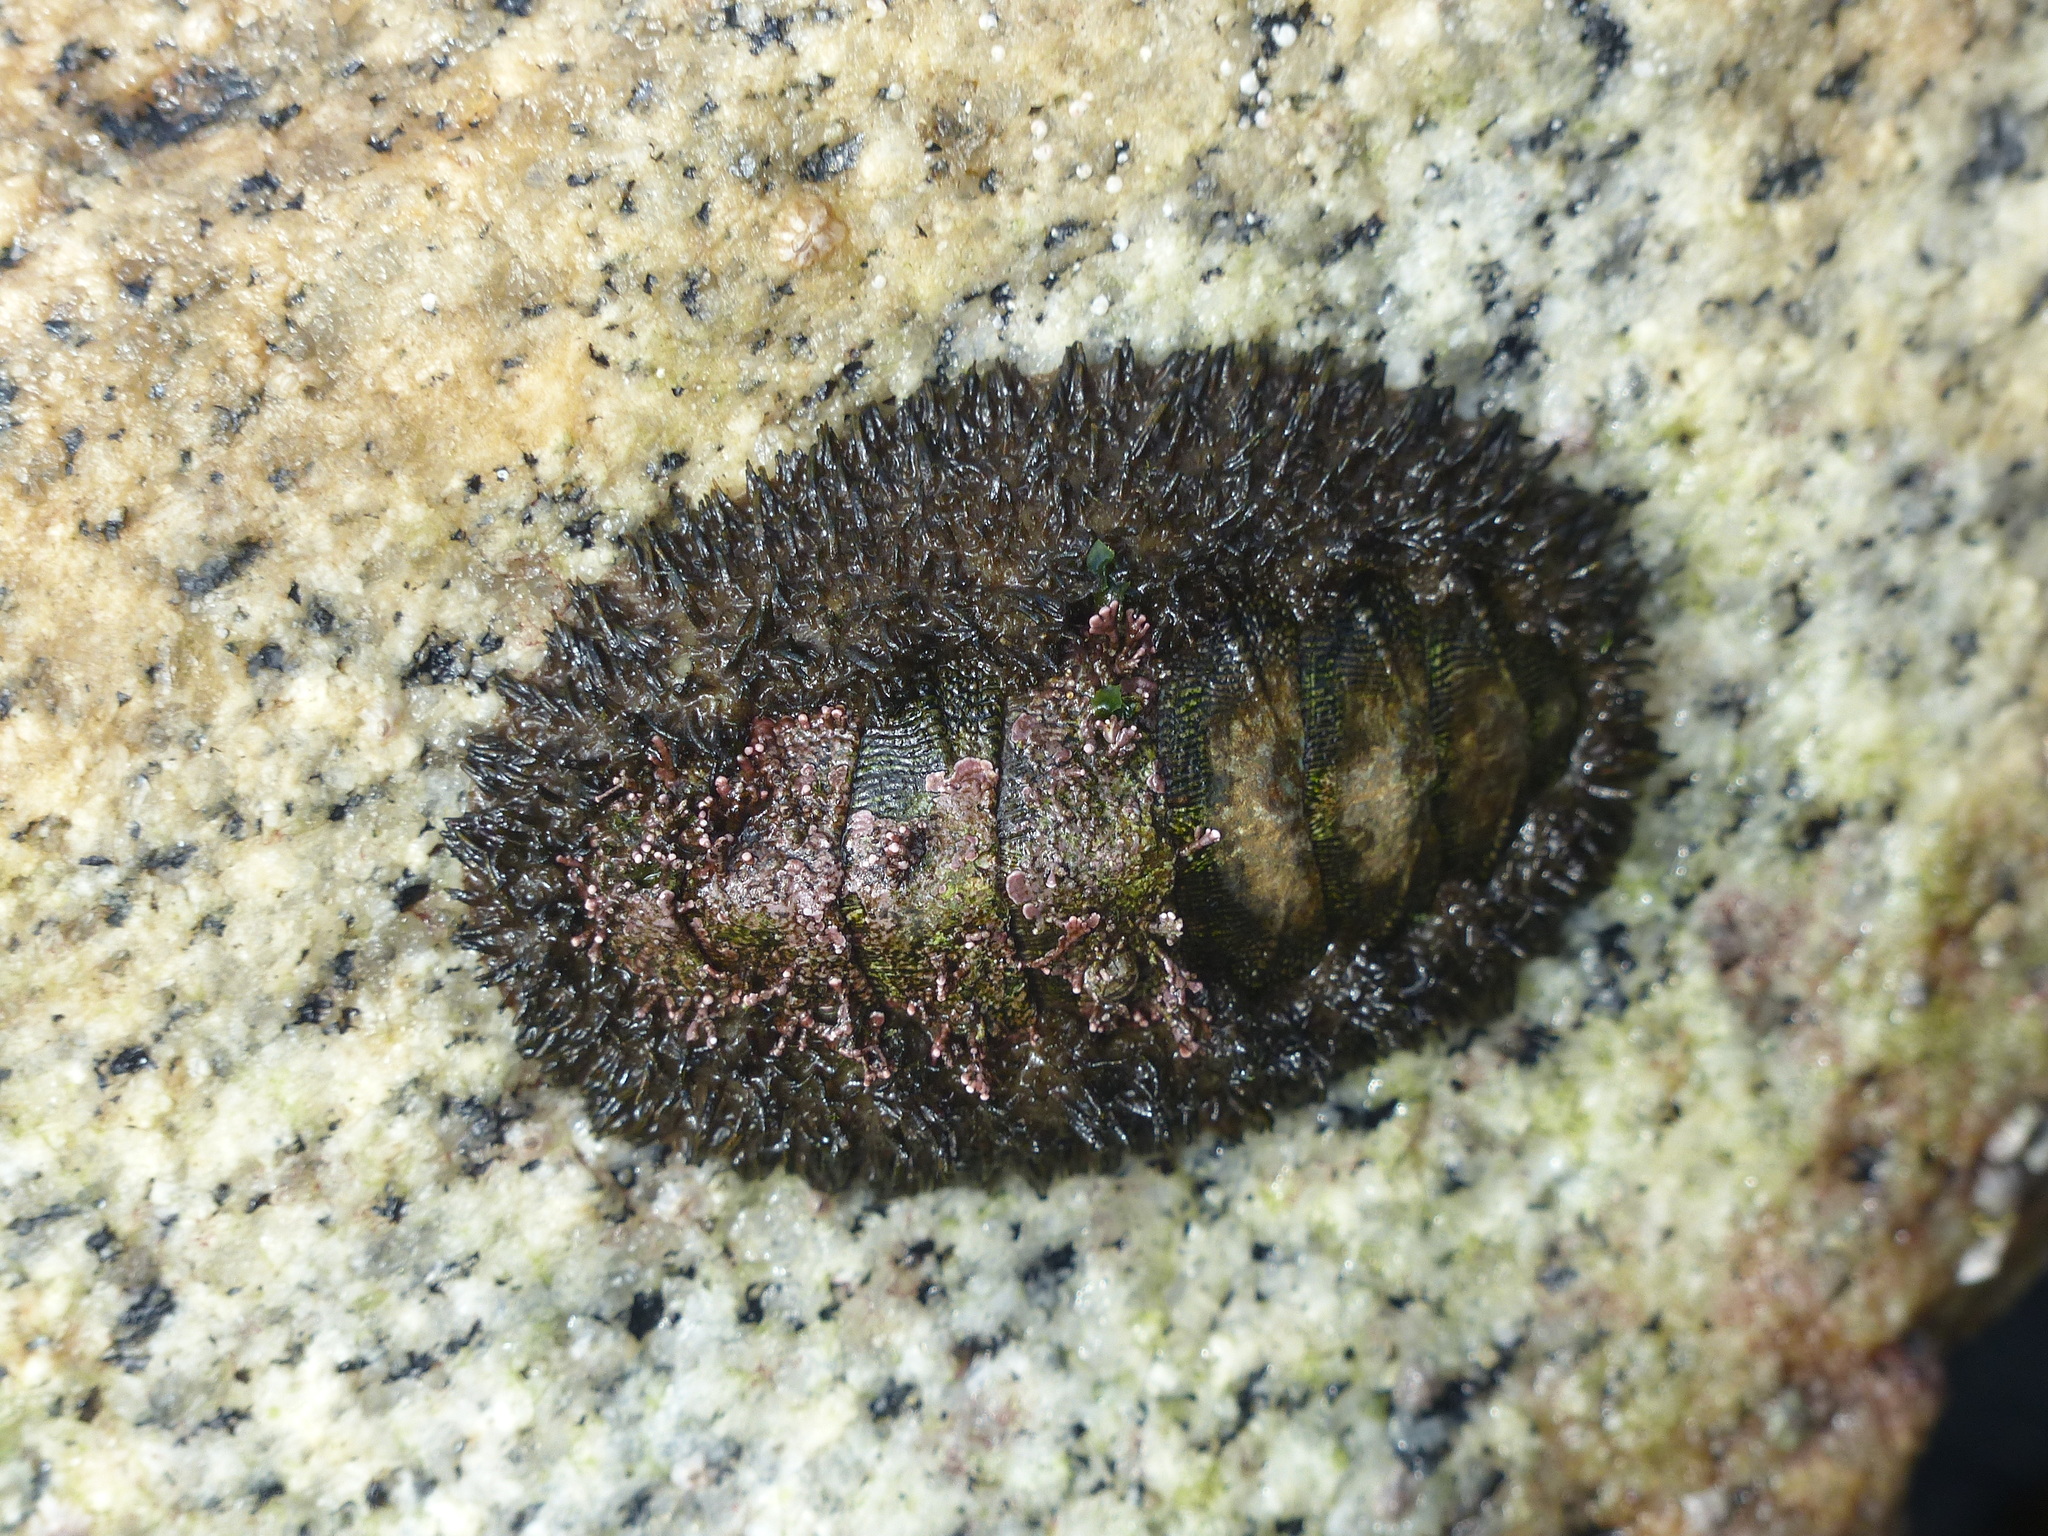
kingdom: Animalia
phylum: Mollusca
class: Polyplacophora
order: Chitonida
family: Mopaliidae
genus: Mopalia
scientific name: Mopalia muscosa
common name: Mossy chiton
